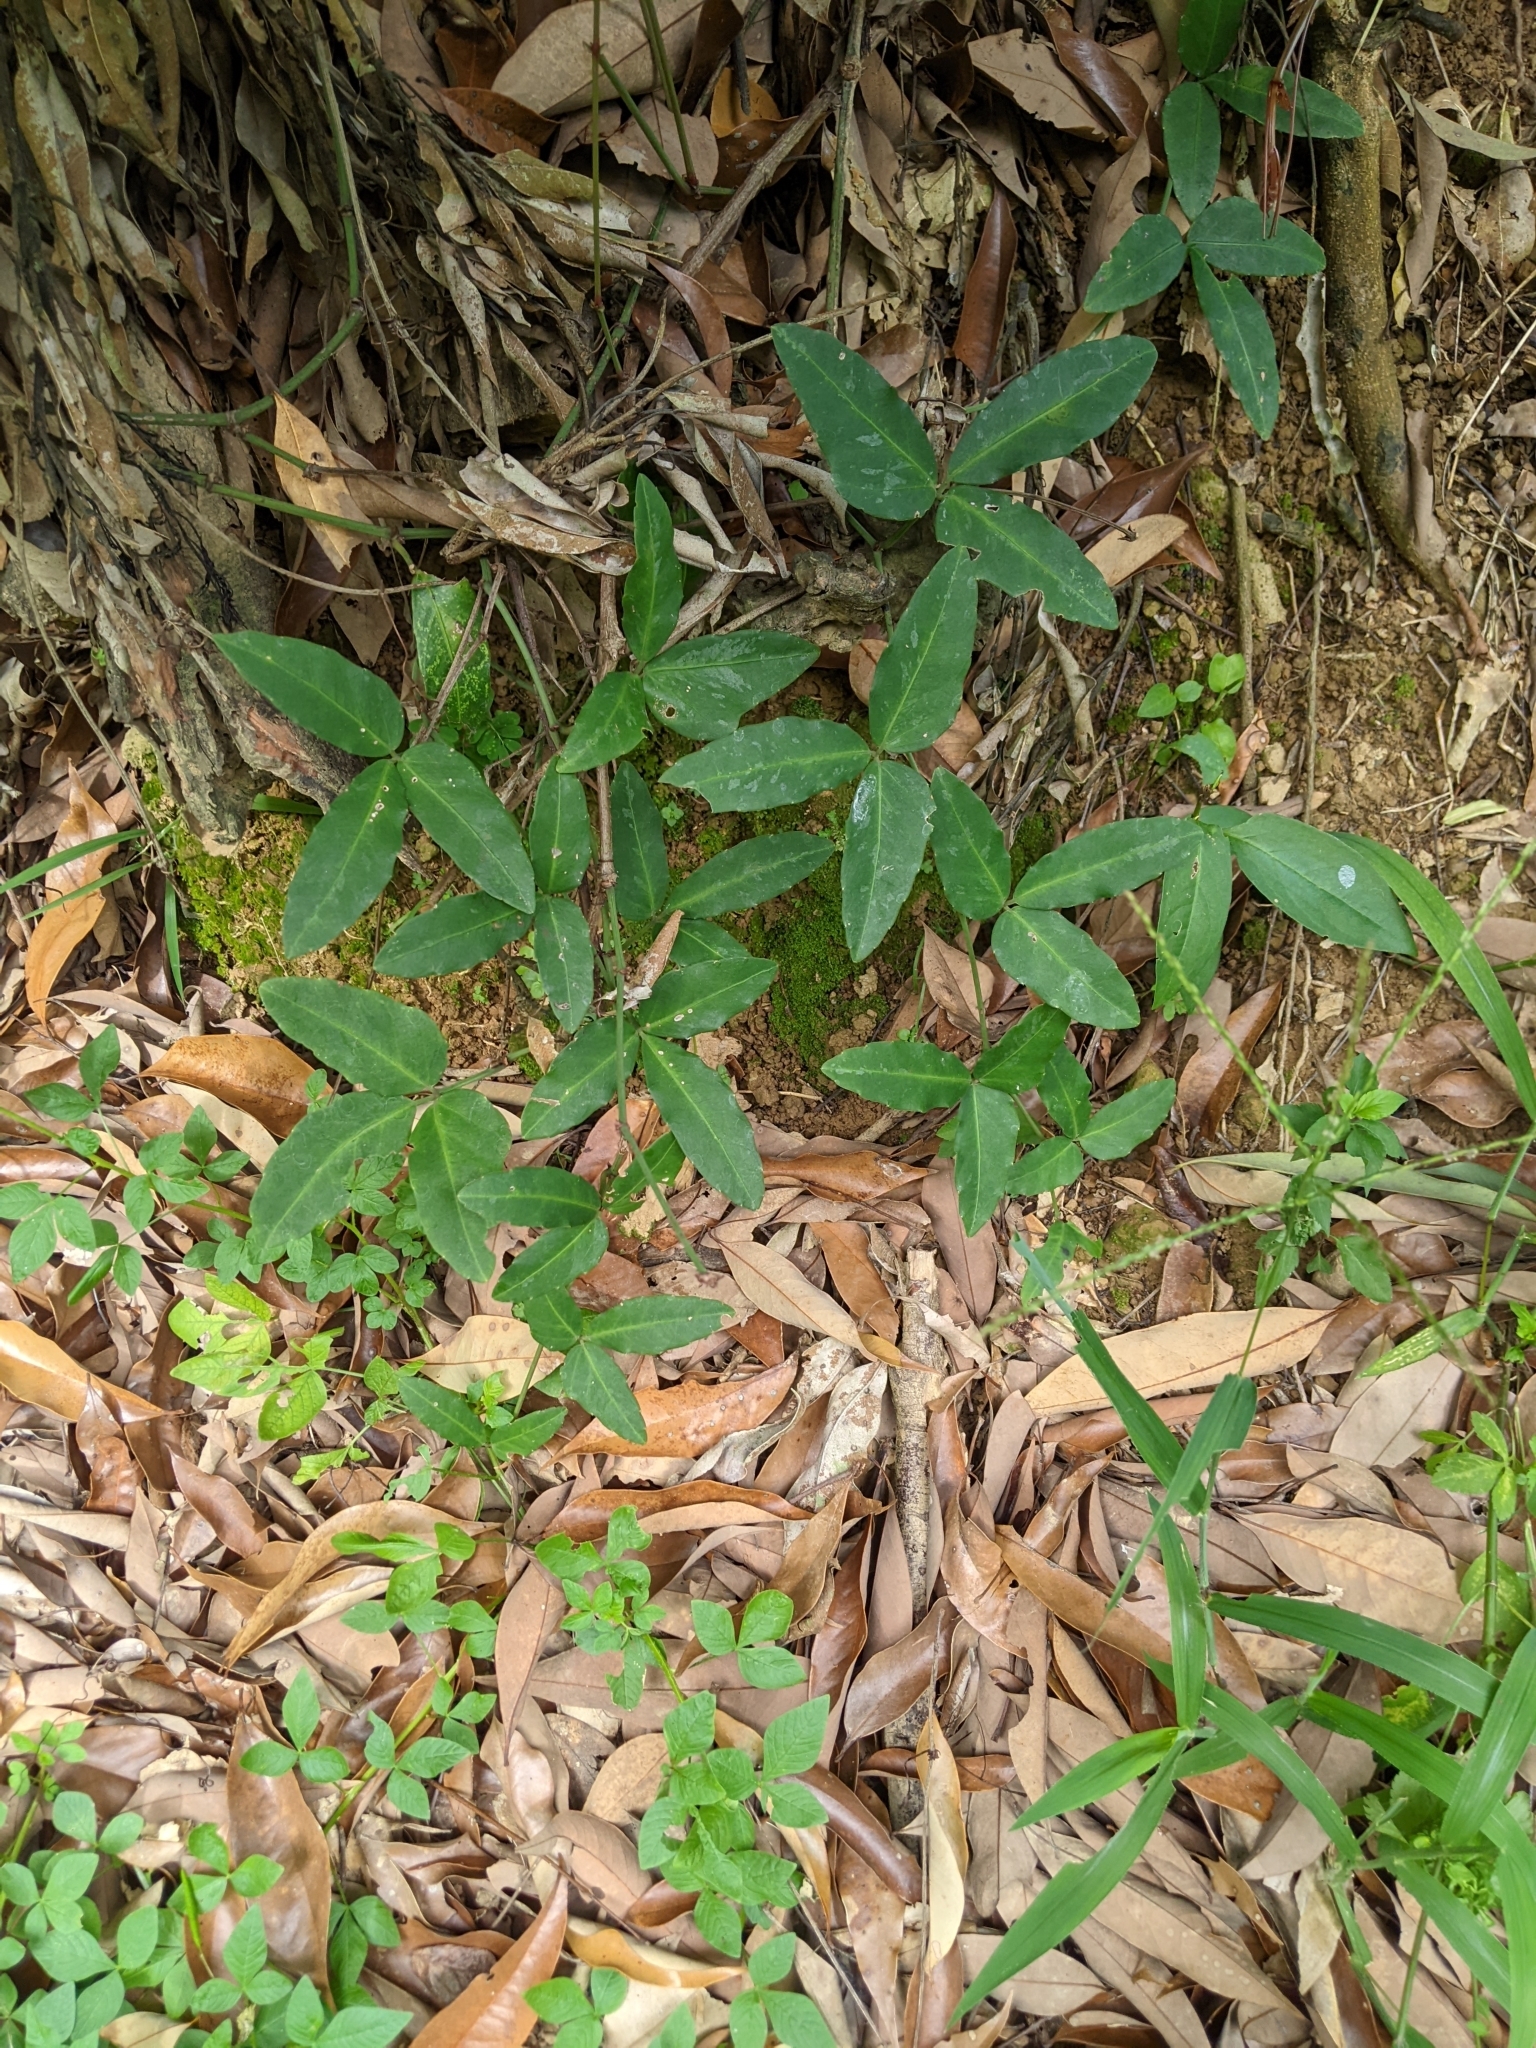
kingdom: Plantae
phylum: Tracheophyta
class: Magnoliopsida
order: Vitales
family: Vitaceae
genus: Tetrastigma
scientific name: Tetrastigma formosanum
